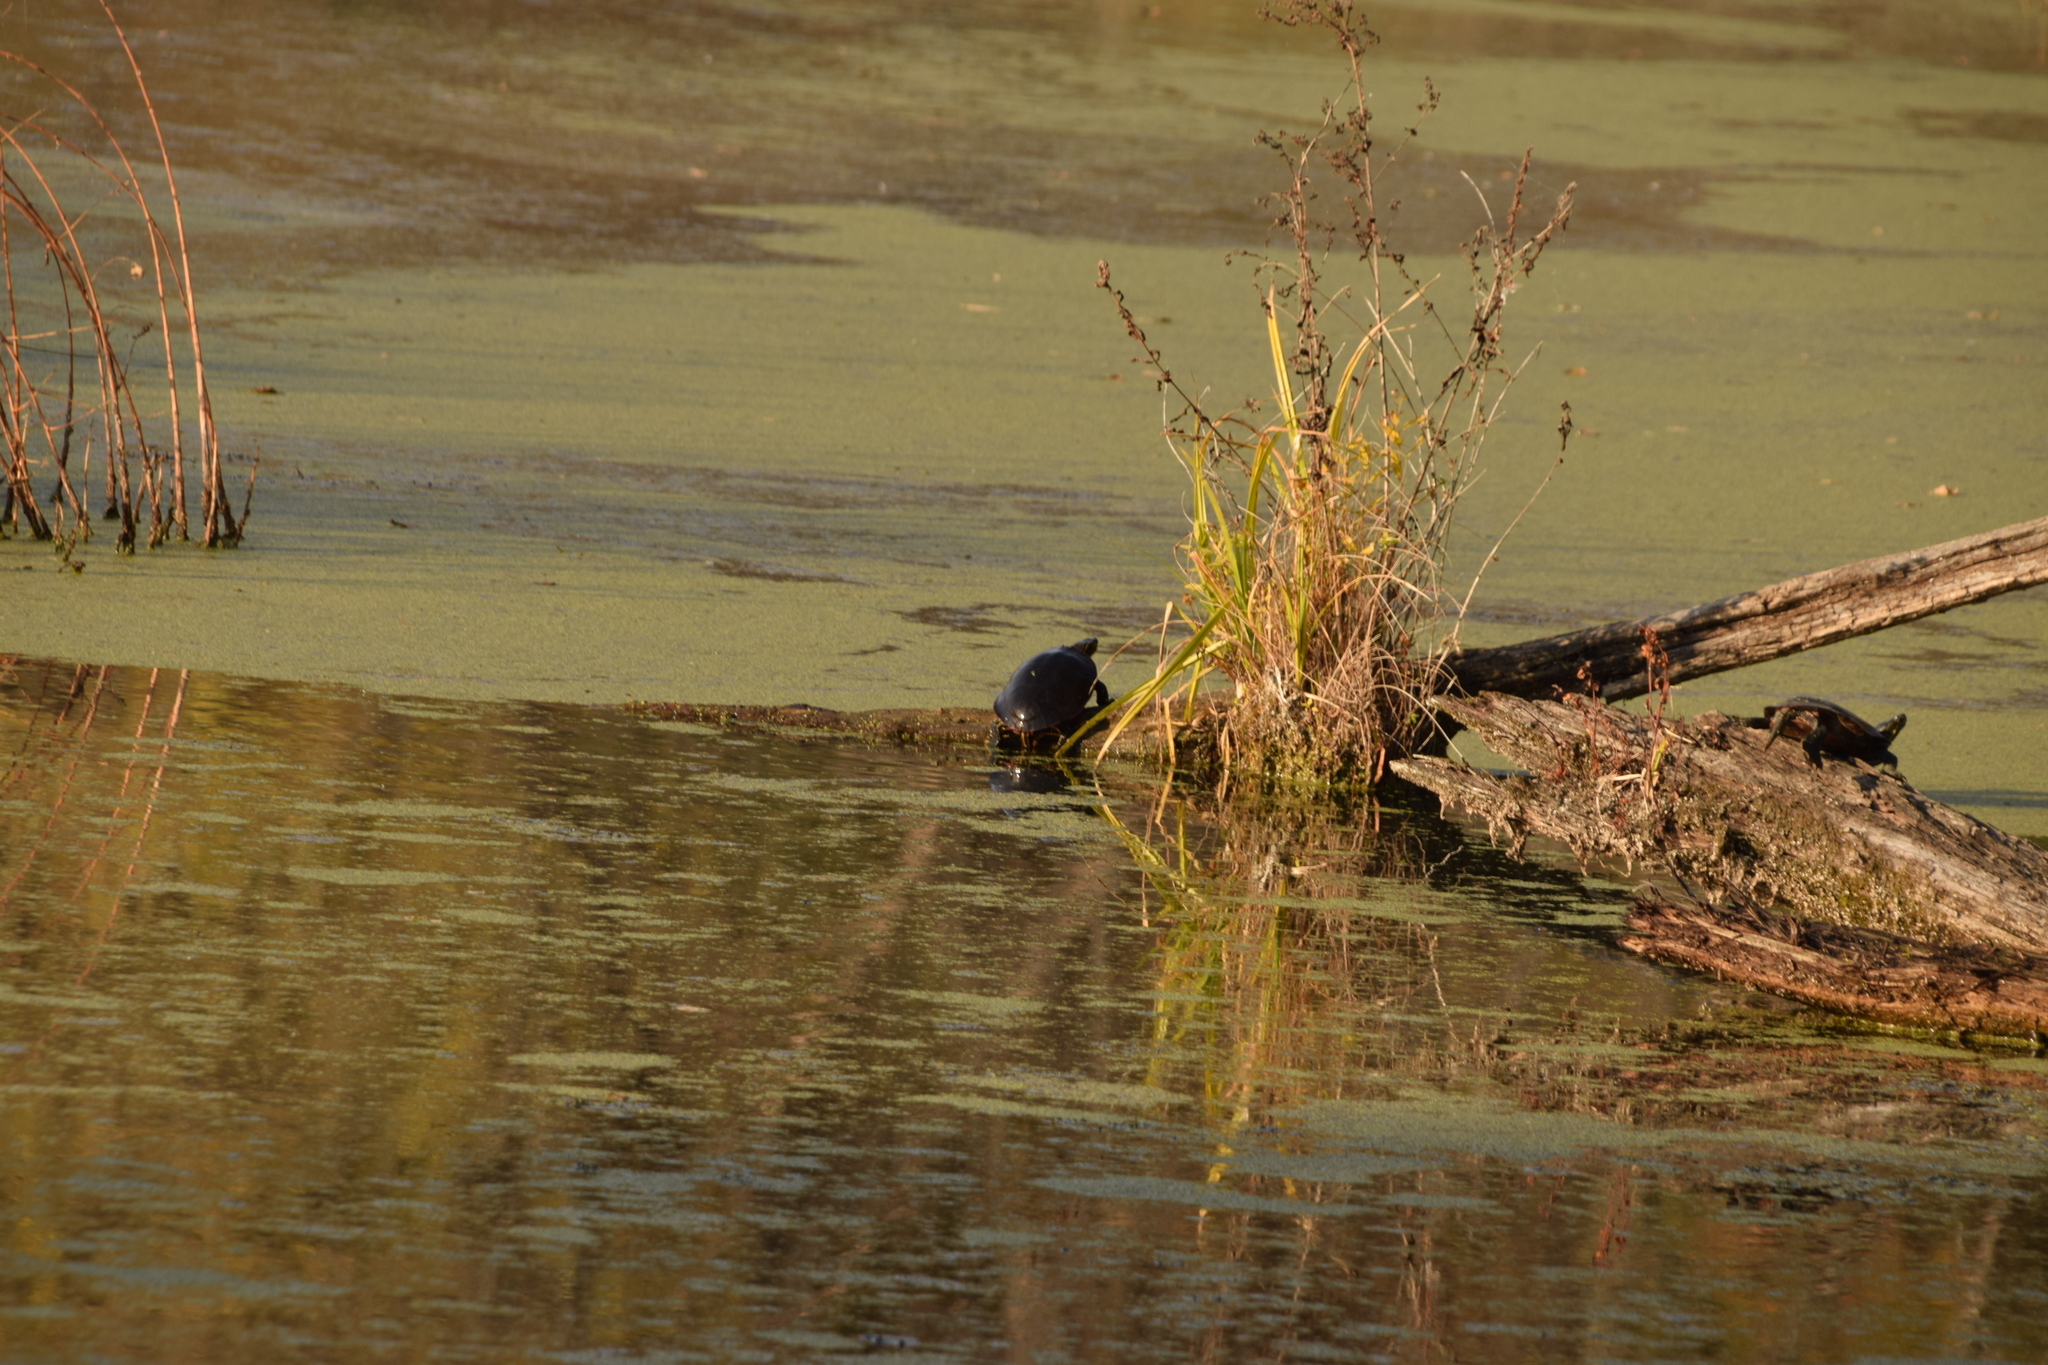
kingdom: Animalia
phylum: Chordata
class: Testudines
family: Emydidae
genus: Chrysemys
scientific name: Chrysemys picta
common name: Painted turtle
